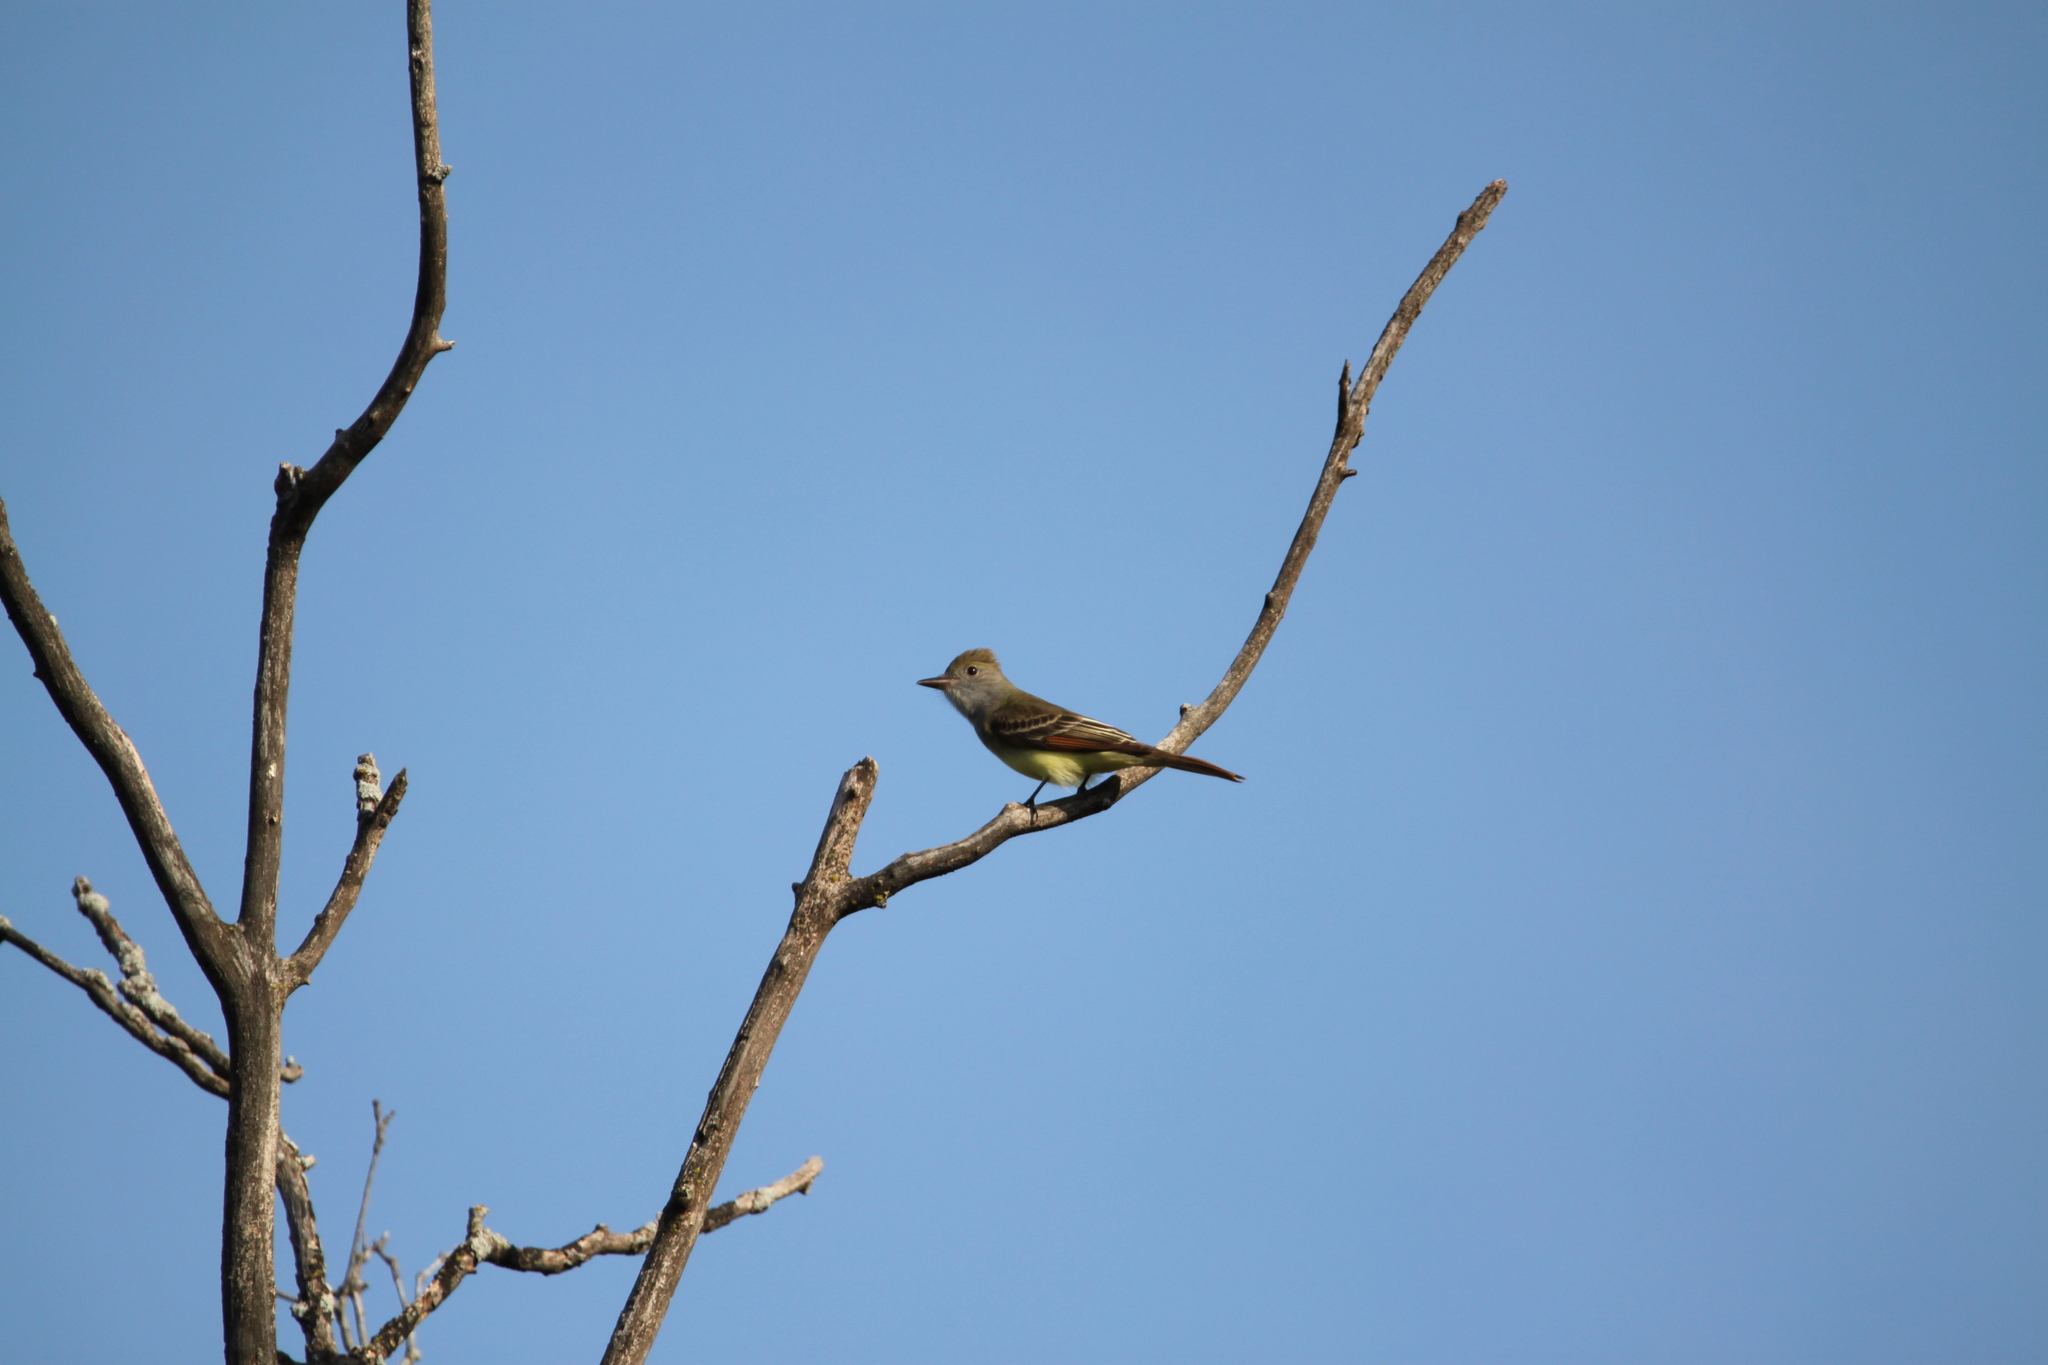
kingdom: Animalia
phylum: Chordata
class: Aves
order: Passeriformes
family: Tyrannidae
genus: Myiarchus
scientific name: Myiarchus crinitus
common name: Great crested flycatcher
